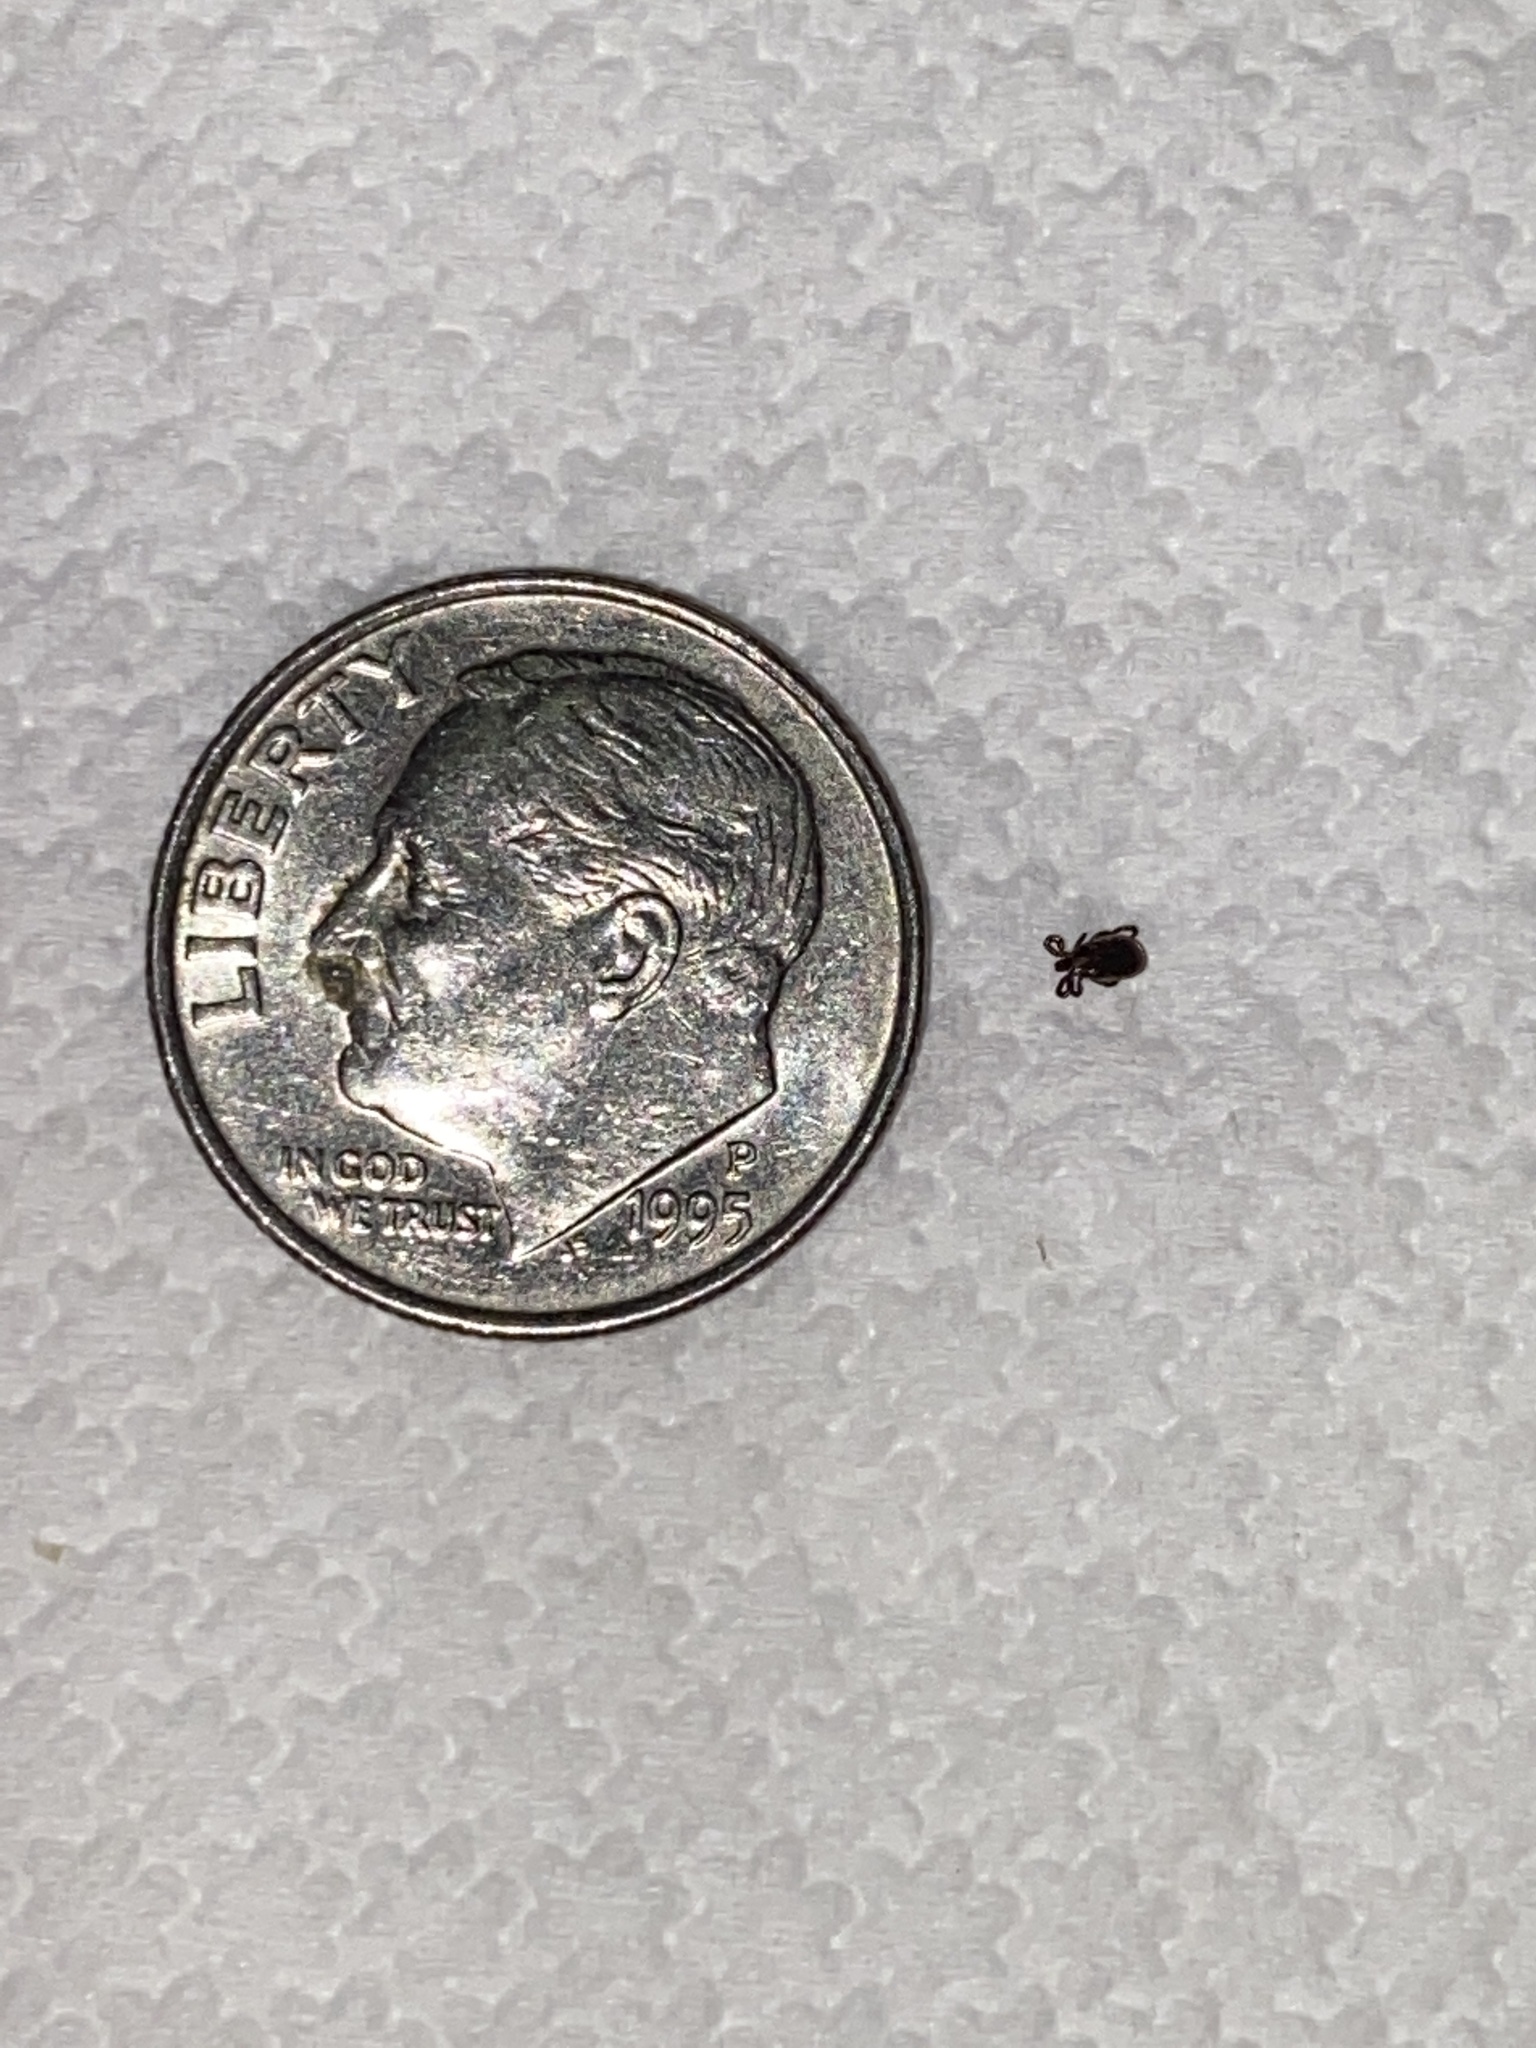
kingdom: Animalia
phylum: Arthropoda
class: Arachnida
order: Ixodida
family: Ixodidae
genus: Ixodes
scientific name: Ixodes scapularis
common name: Black legged tick
